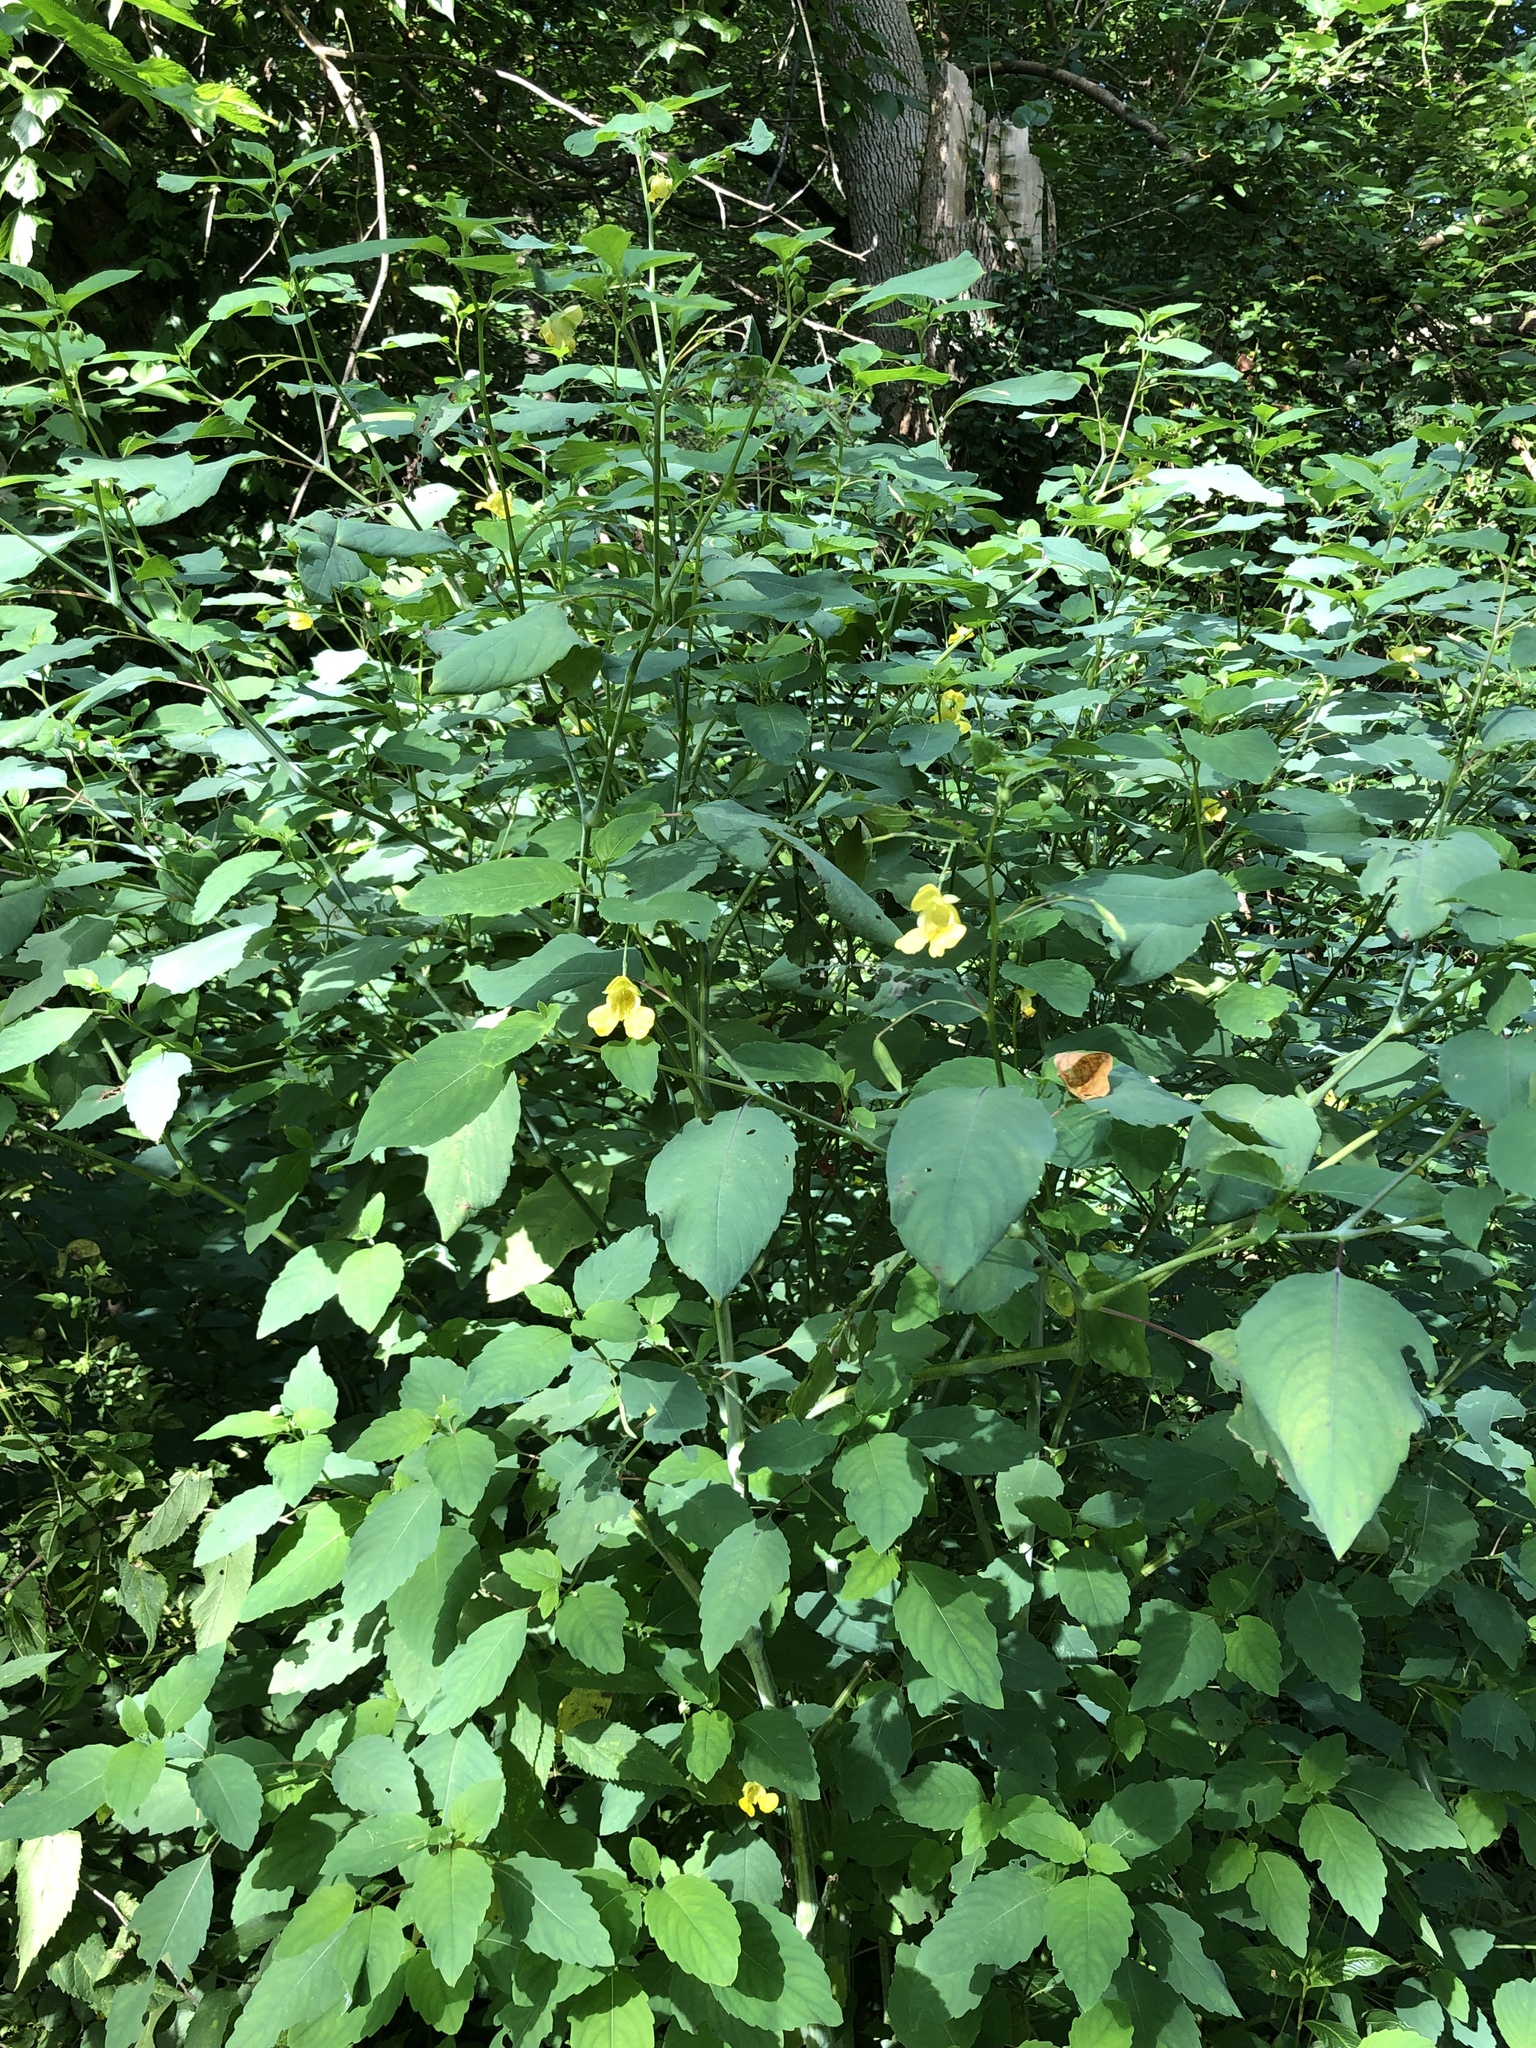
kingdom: Plantae
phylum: Tracheophyta
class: Magnoliopsida
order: Ericales
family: Balsaminaceae
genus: Impatiens
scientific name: Impatiens pallida
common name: Pale snapweed
